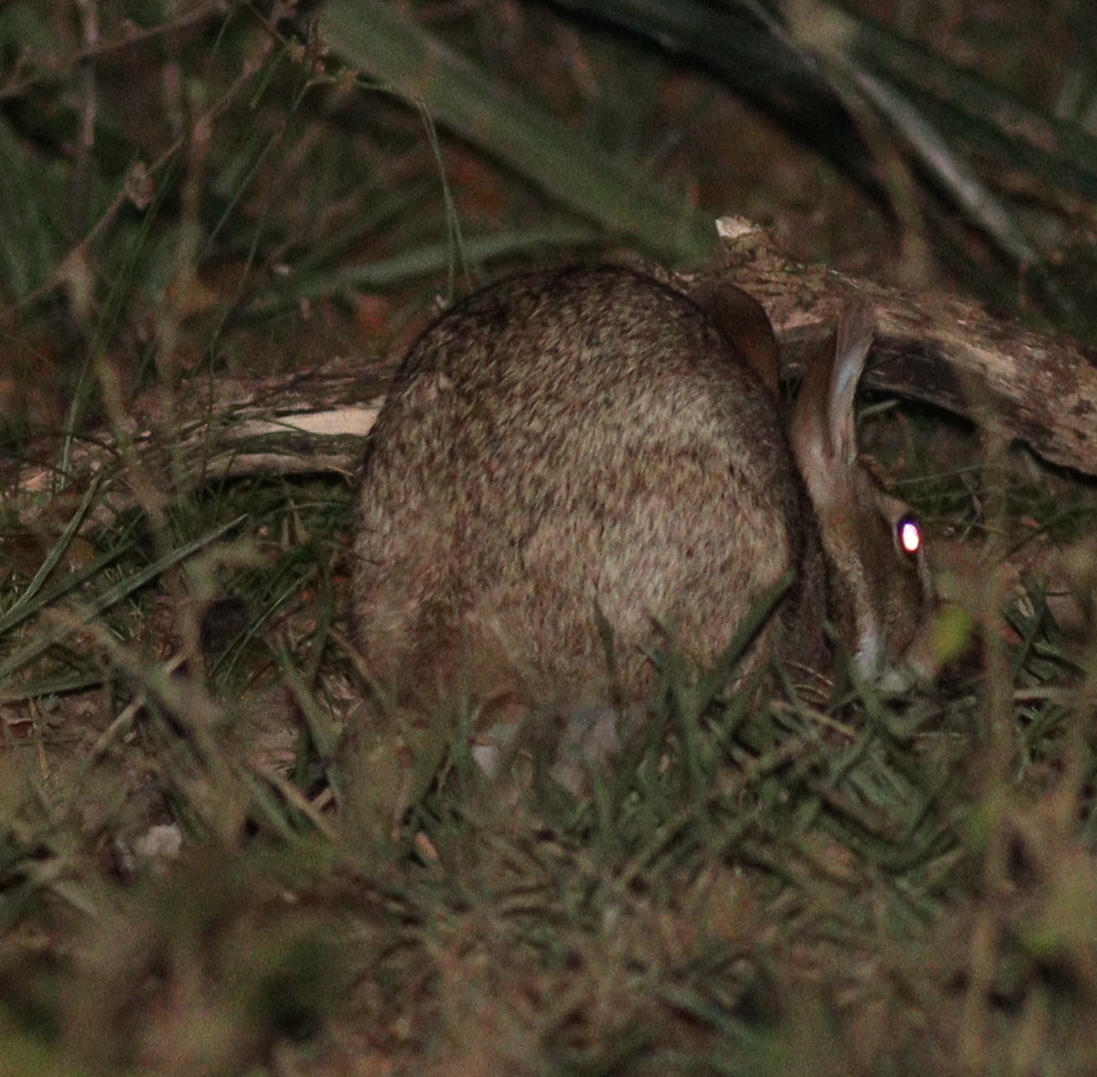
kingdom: Animalia
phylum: Chordata
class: Mammalia
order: Lagomorpha
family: Leporidae
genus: Sylvilagus
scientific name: Sylvilagus brasiliensis
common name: Tapeti
